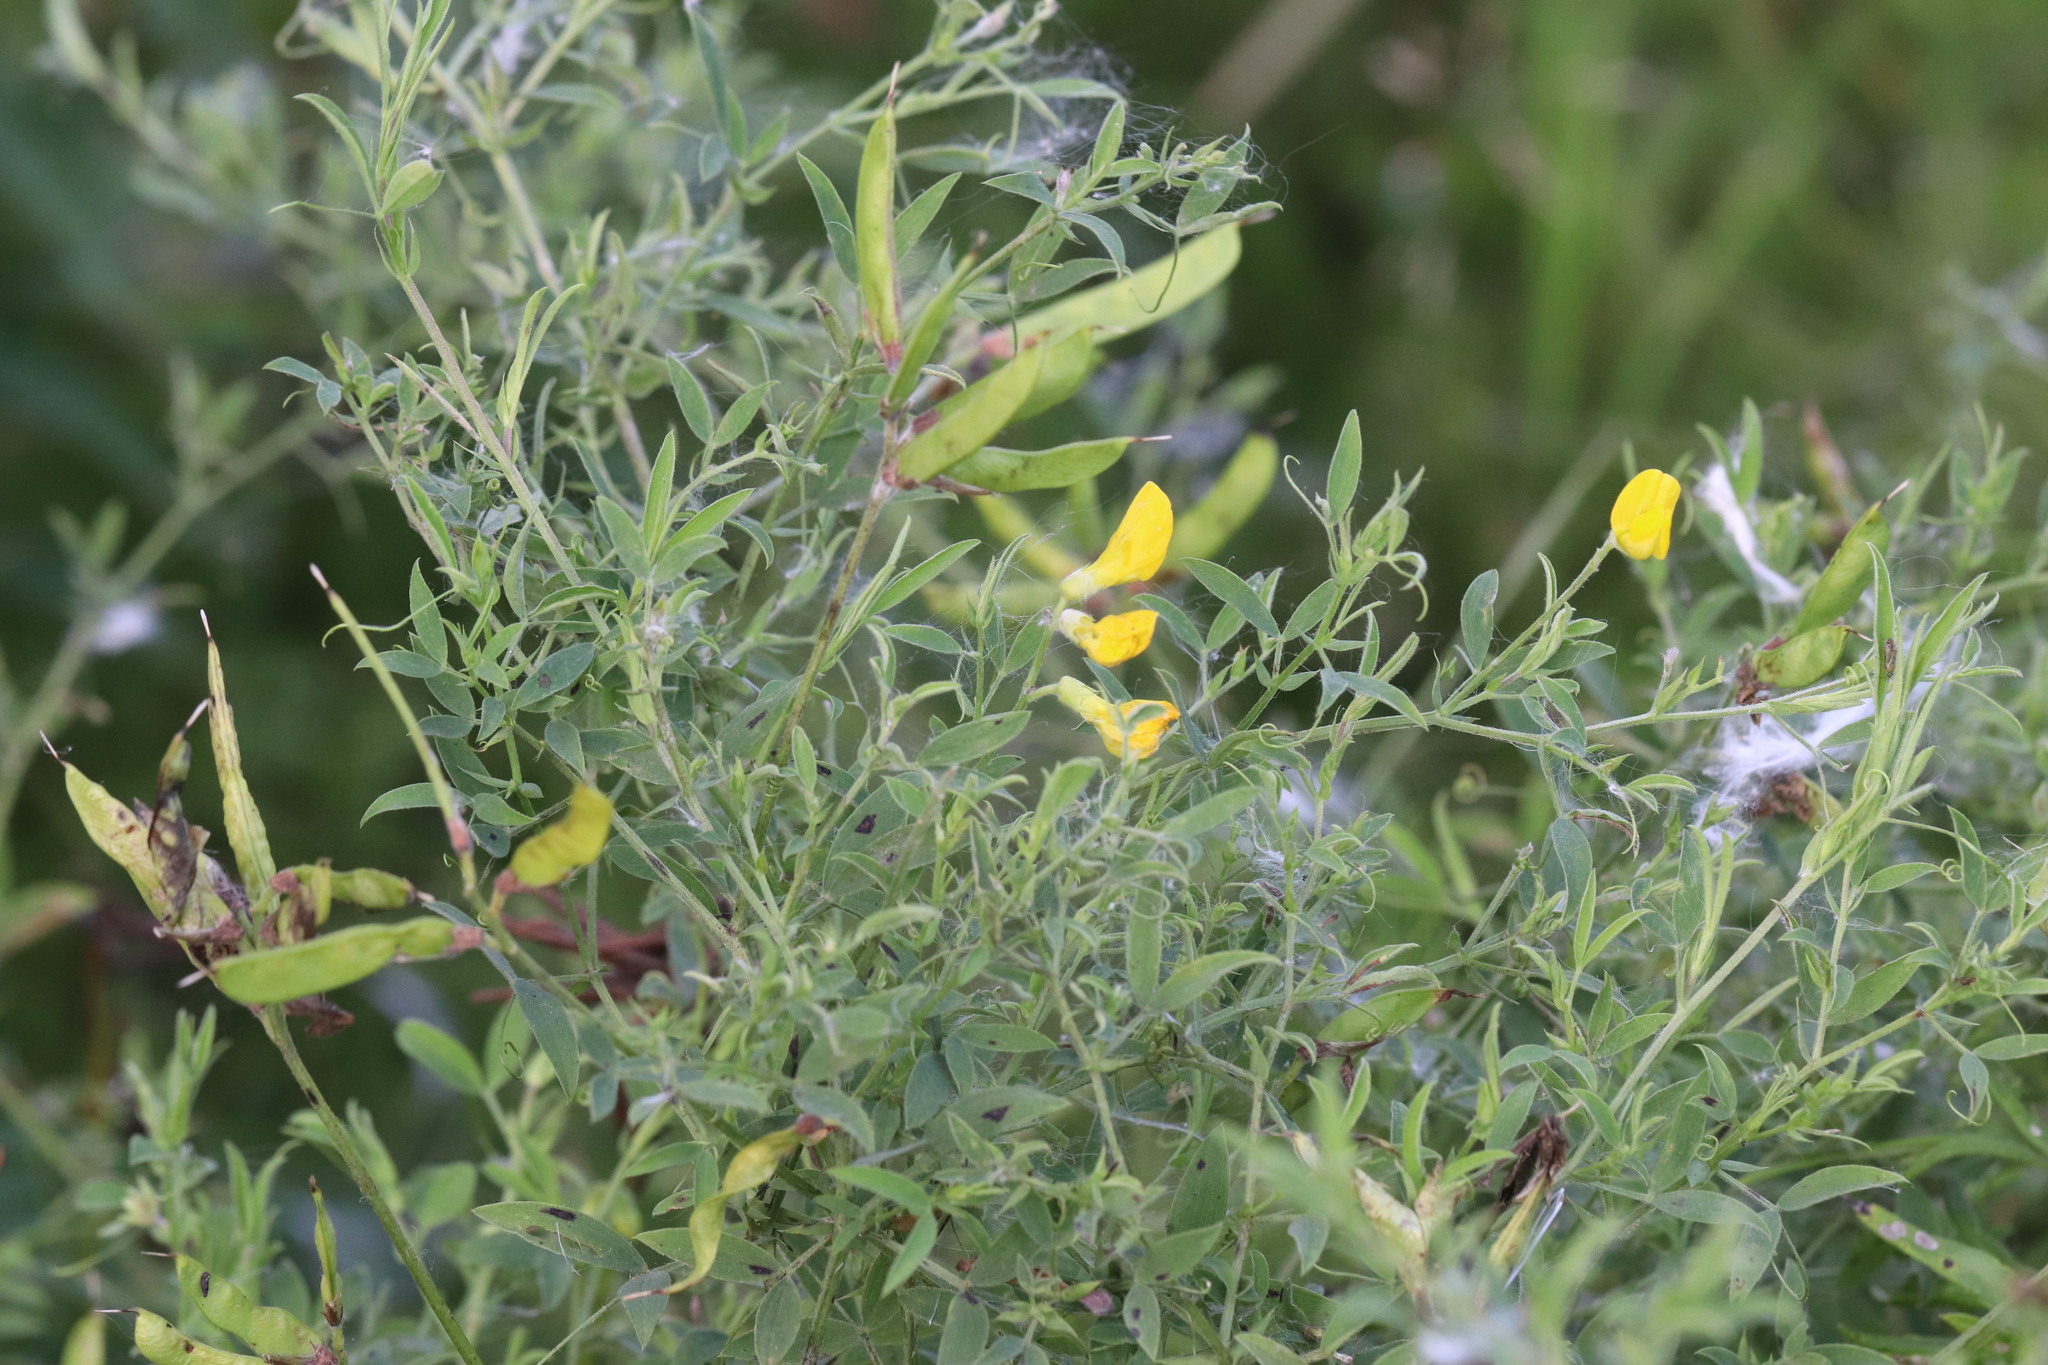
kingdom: Plantae
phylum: Tracheophyta
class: Magnoliopsida
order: Fabales
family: Fabaceae
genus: Lathyrus
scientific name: Lathyrus pratensis
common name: Meadow vetchling
